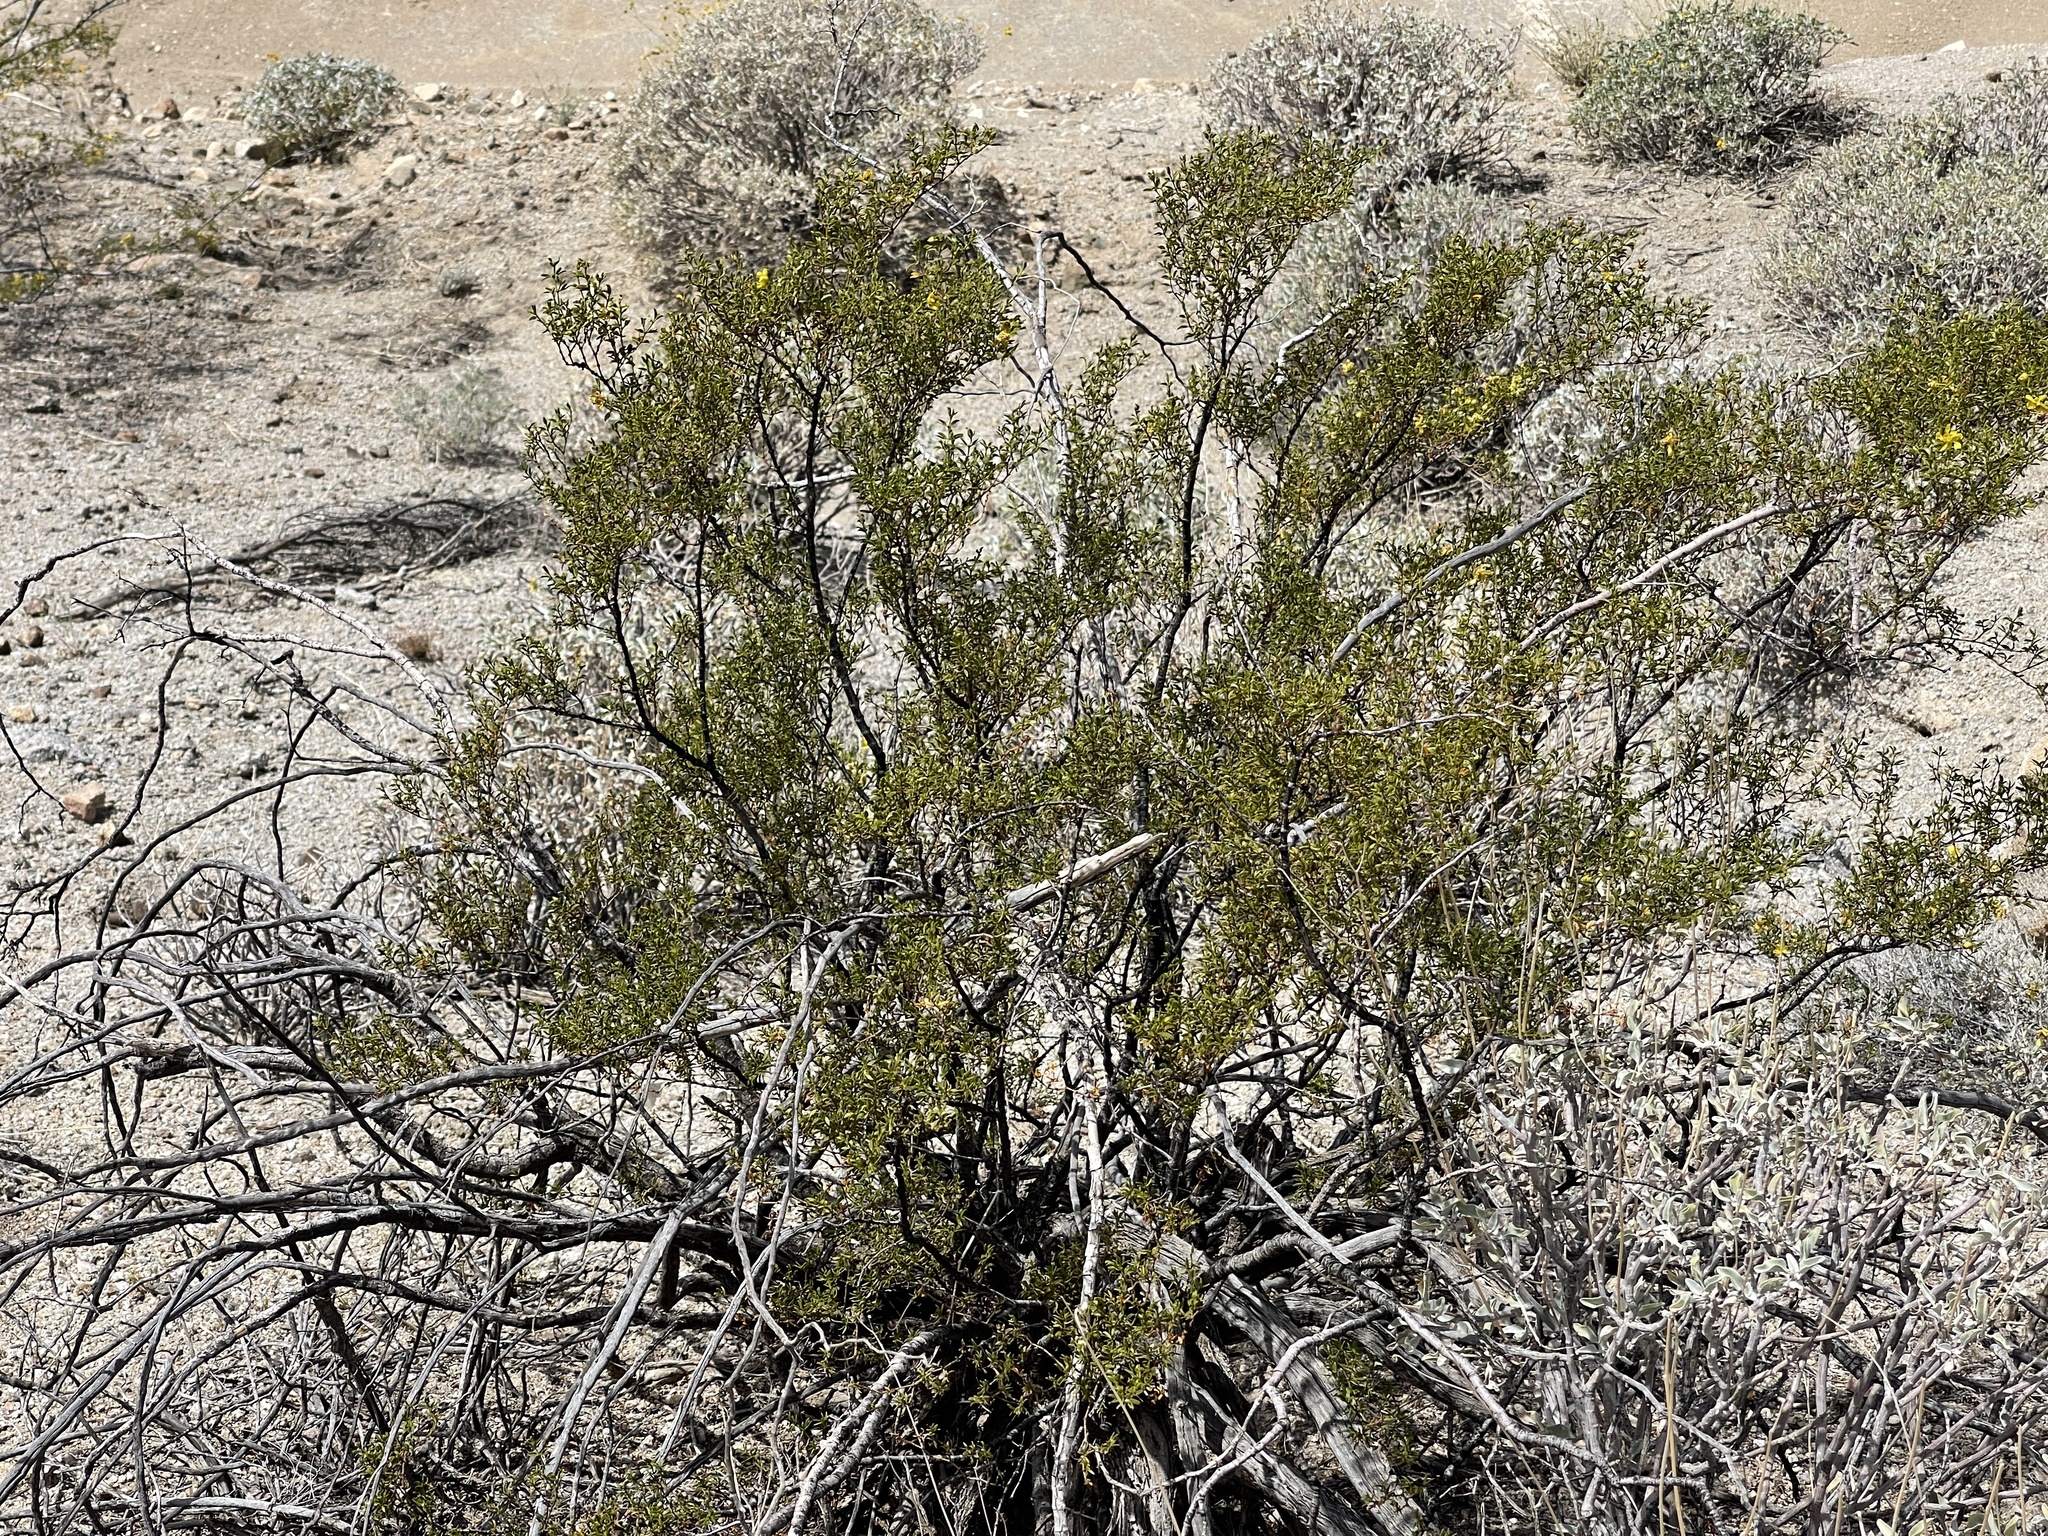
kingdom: Plantae
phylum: Tracheophyta
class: Magnoliopsida
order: Zygophyllales
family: Zygophyllaceae
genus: Larrea
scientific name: Larrea tridentata
